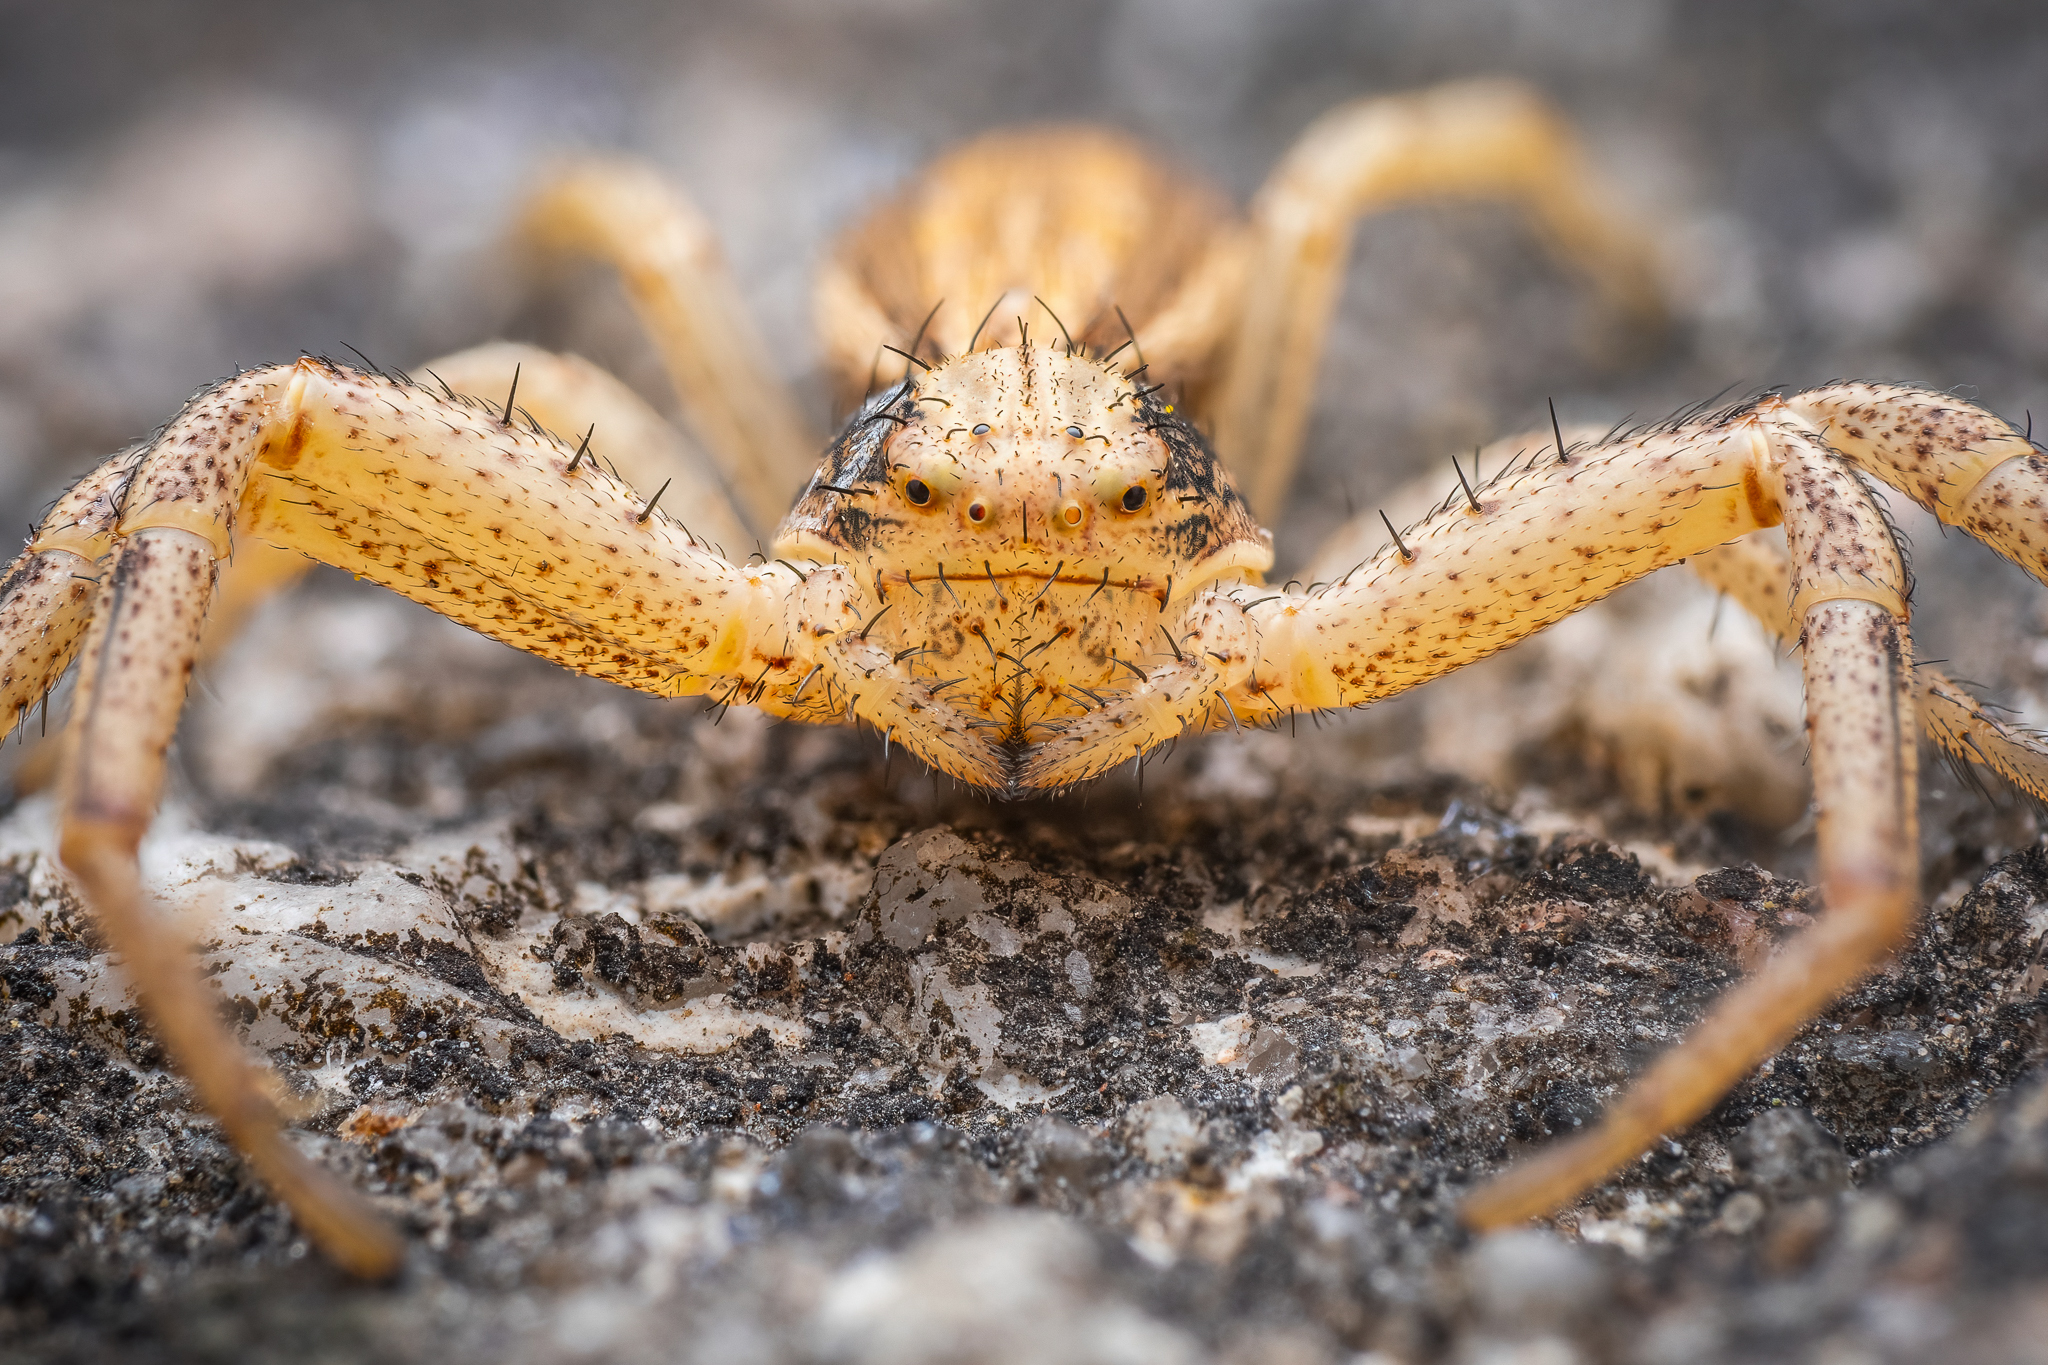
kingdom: Animalia
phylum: Arthropoda
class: Arachnida
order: Araneae
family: Thomisidae
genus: Spiracme
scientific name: Spiracme striatipes
